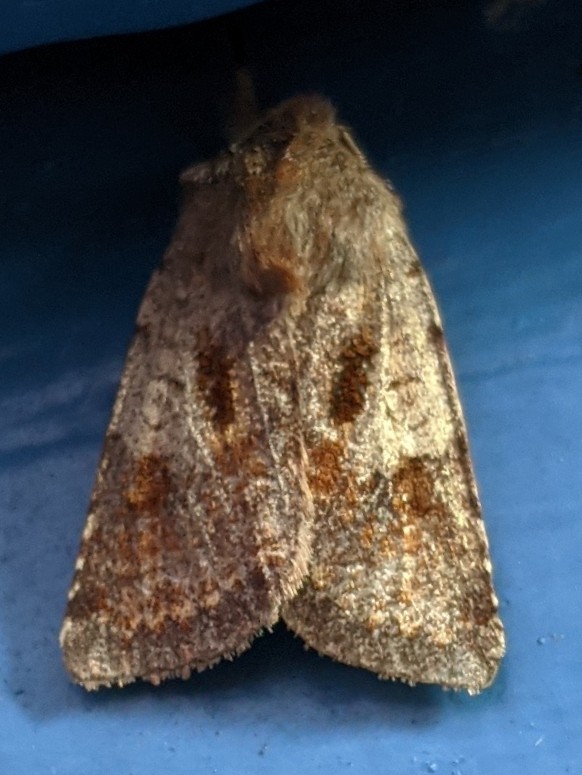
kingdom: Animalia
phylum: Arthropoda
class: Insecta
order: Lepidoptera
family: Noctuidae
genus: Cerastis
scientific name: Cerastis salicarum
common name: Willow dart
